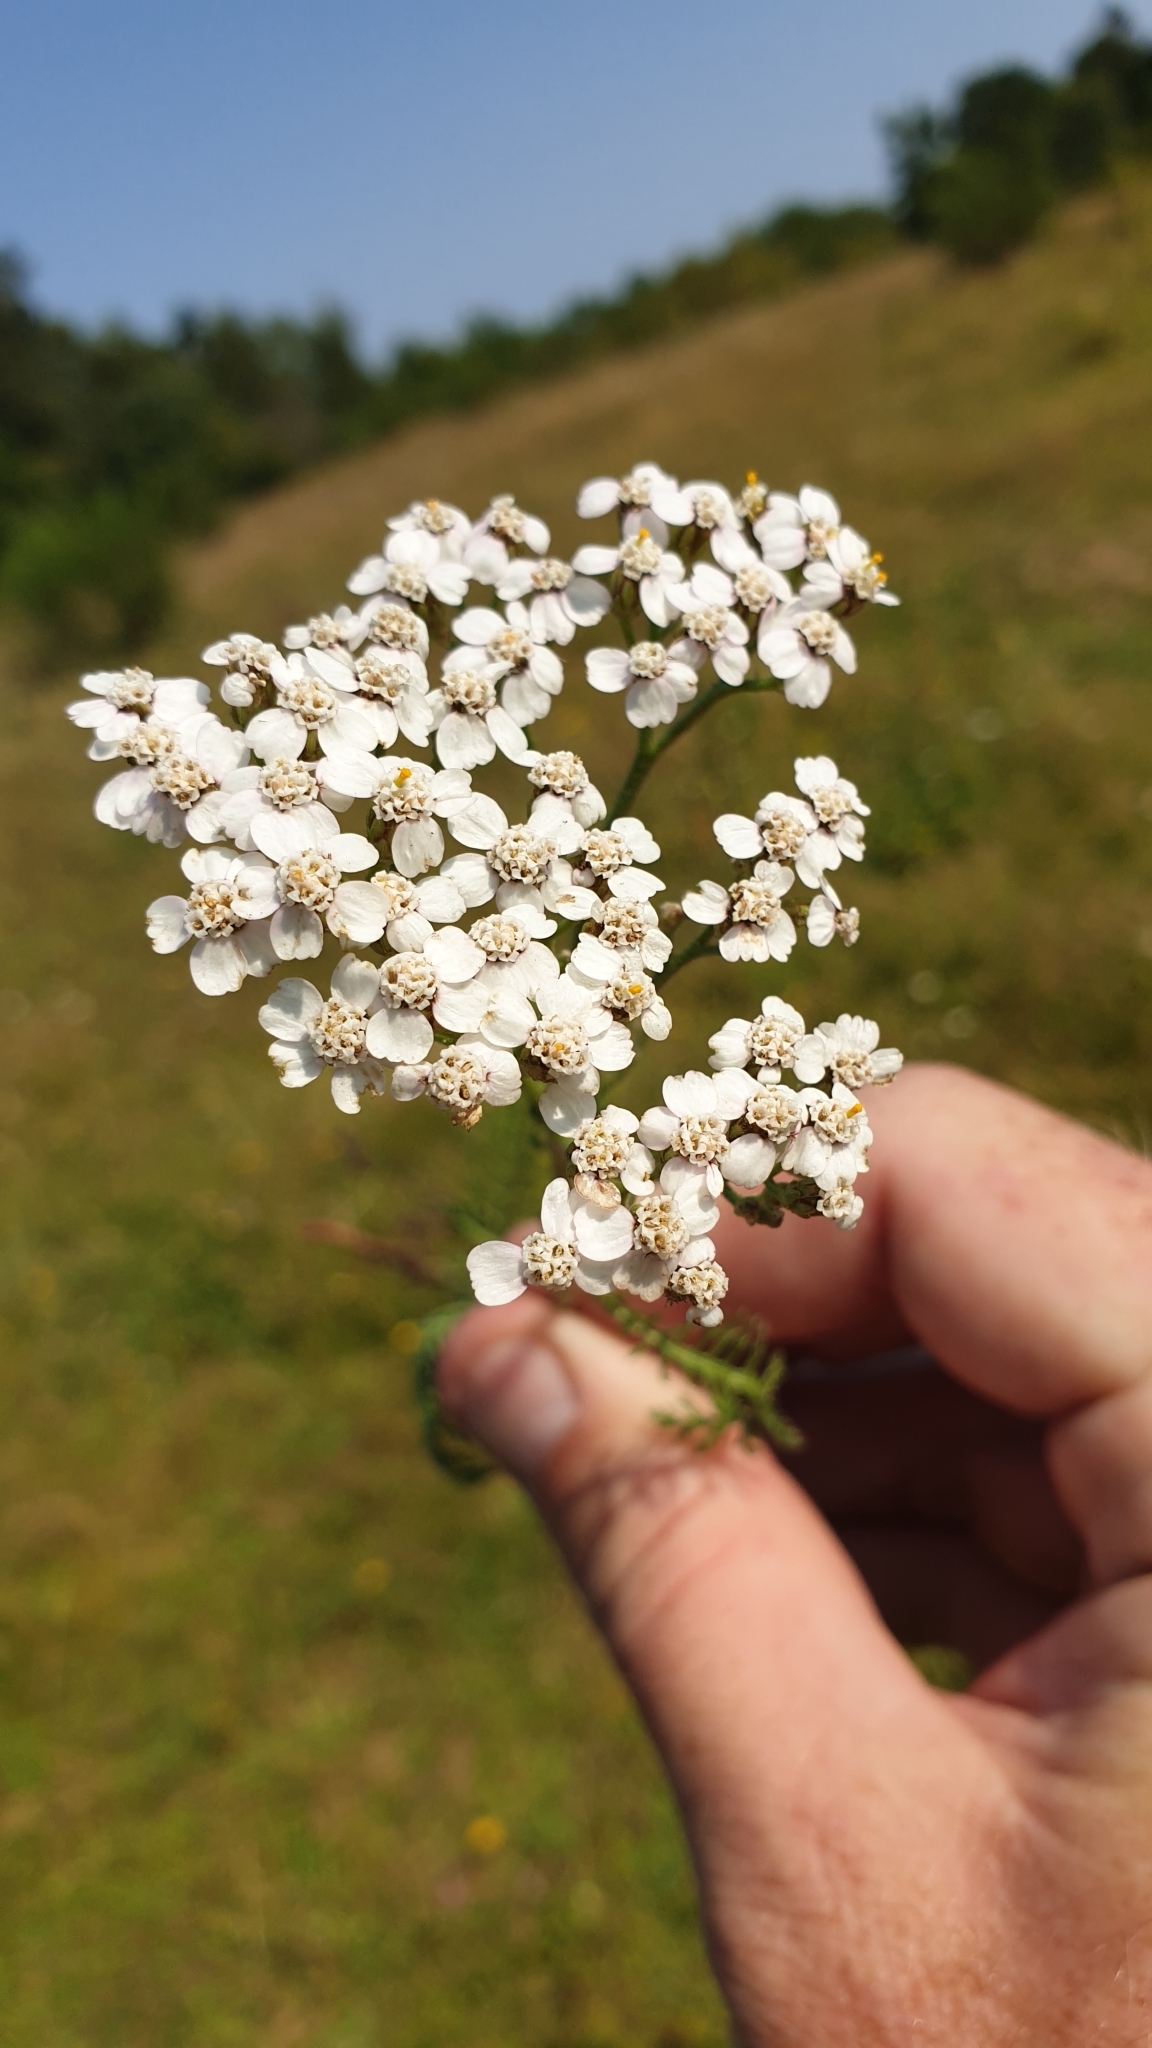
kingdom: Plantae
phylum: Tracheophyta
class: Magnoliopsida
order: Asterales
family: Asteraceae
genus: Achillea
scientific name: Achillea millefolium
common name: Yarrow
